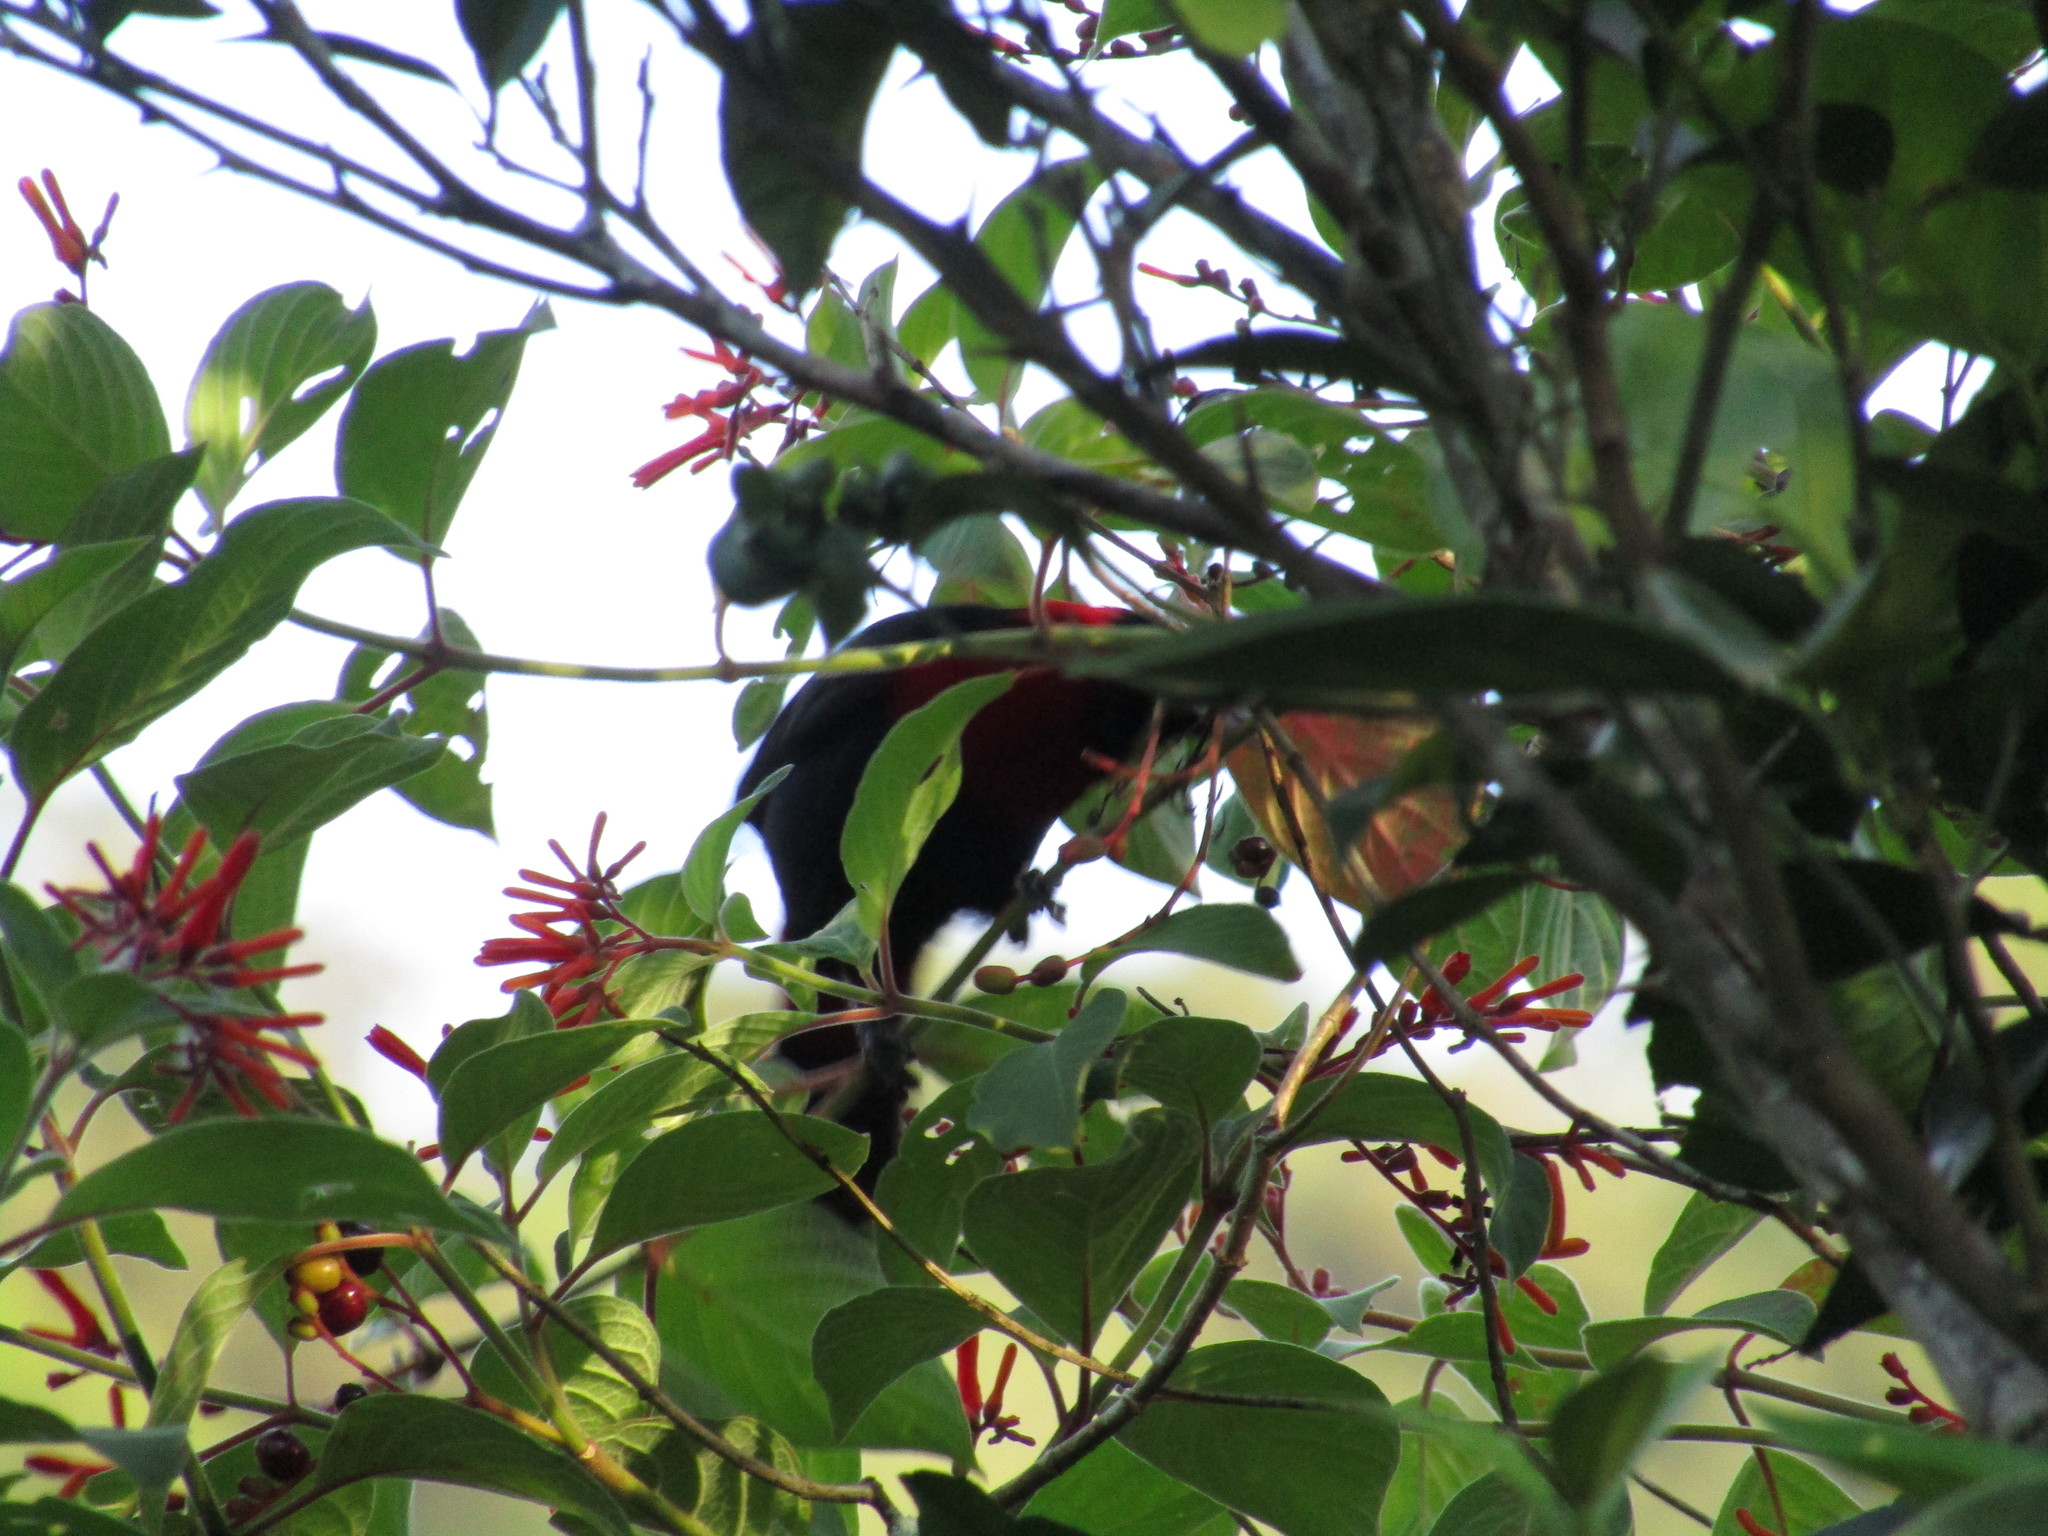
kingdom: Plantae
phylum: Tracheophyta
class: Magnoliopsida
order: Gentianales
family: Rubiaceae
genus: Hamelia
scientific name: Hamelia patens
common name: Redhead
